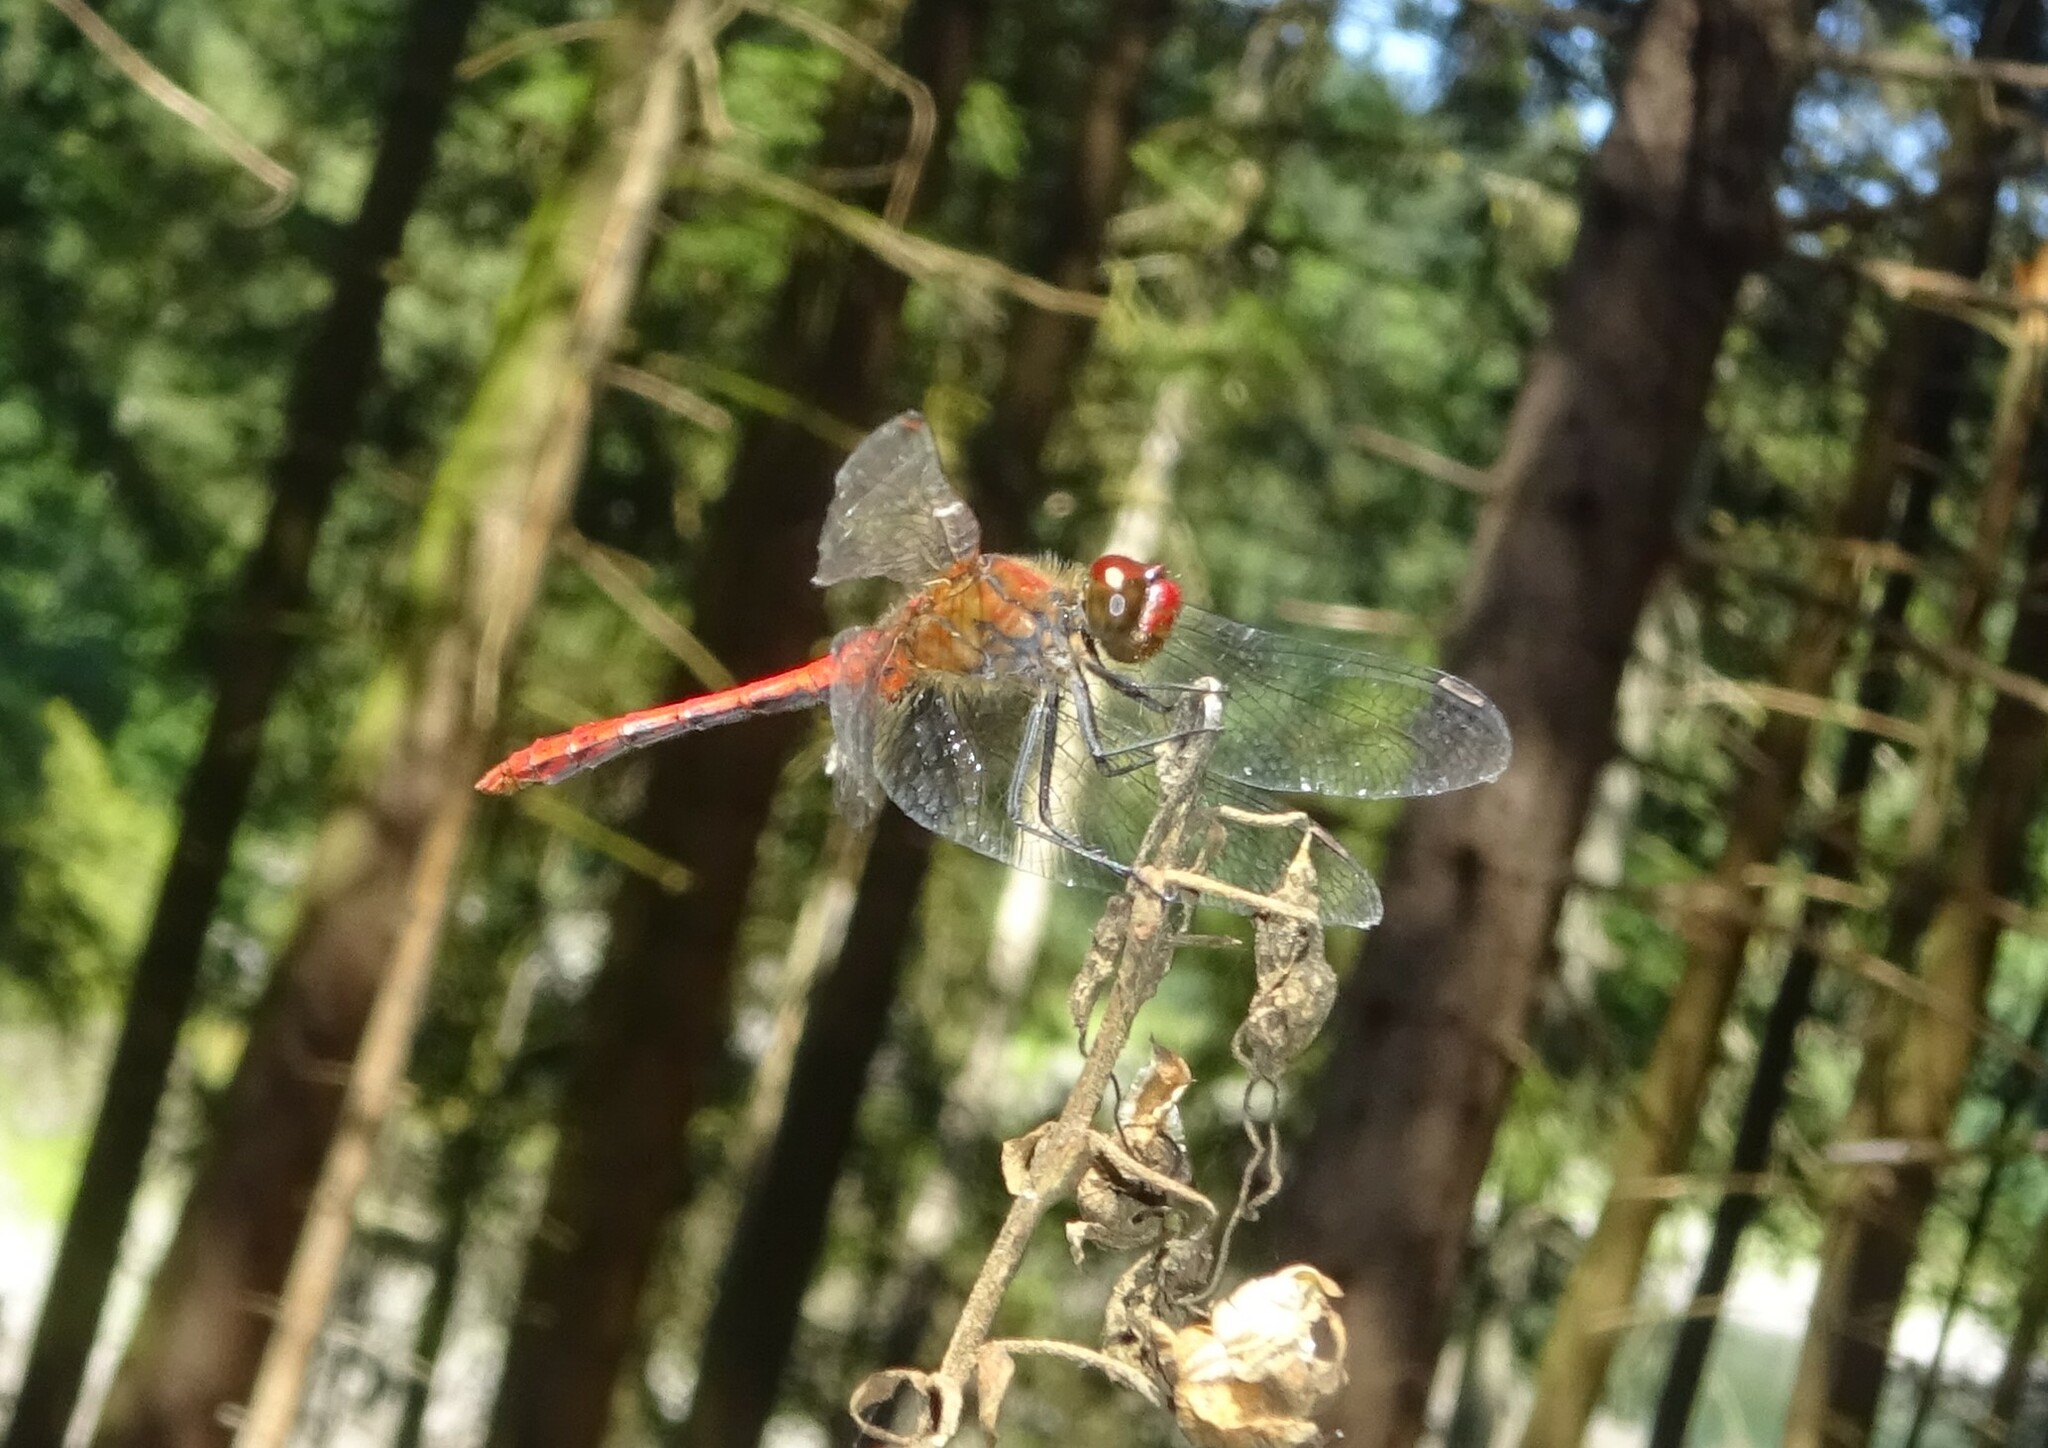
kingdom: Animalia
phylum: Arthropoda
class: Insecta
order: Odonata
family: Libellulidae
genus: Sympetrum
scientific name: Sympetrum sanguineum
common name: Ruddy darter
